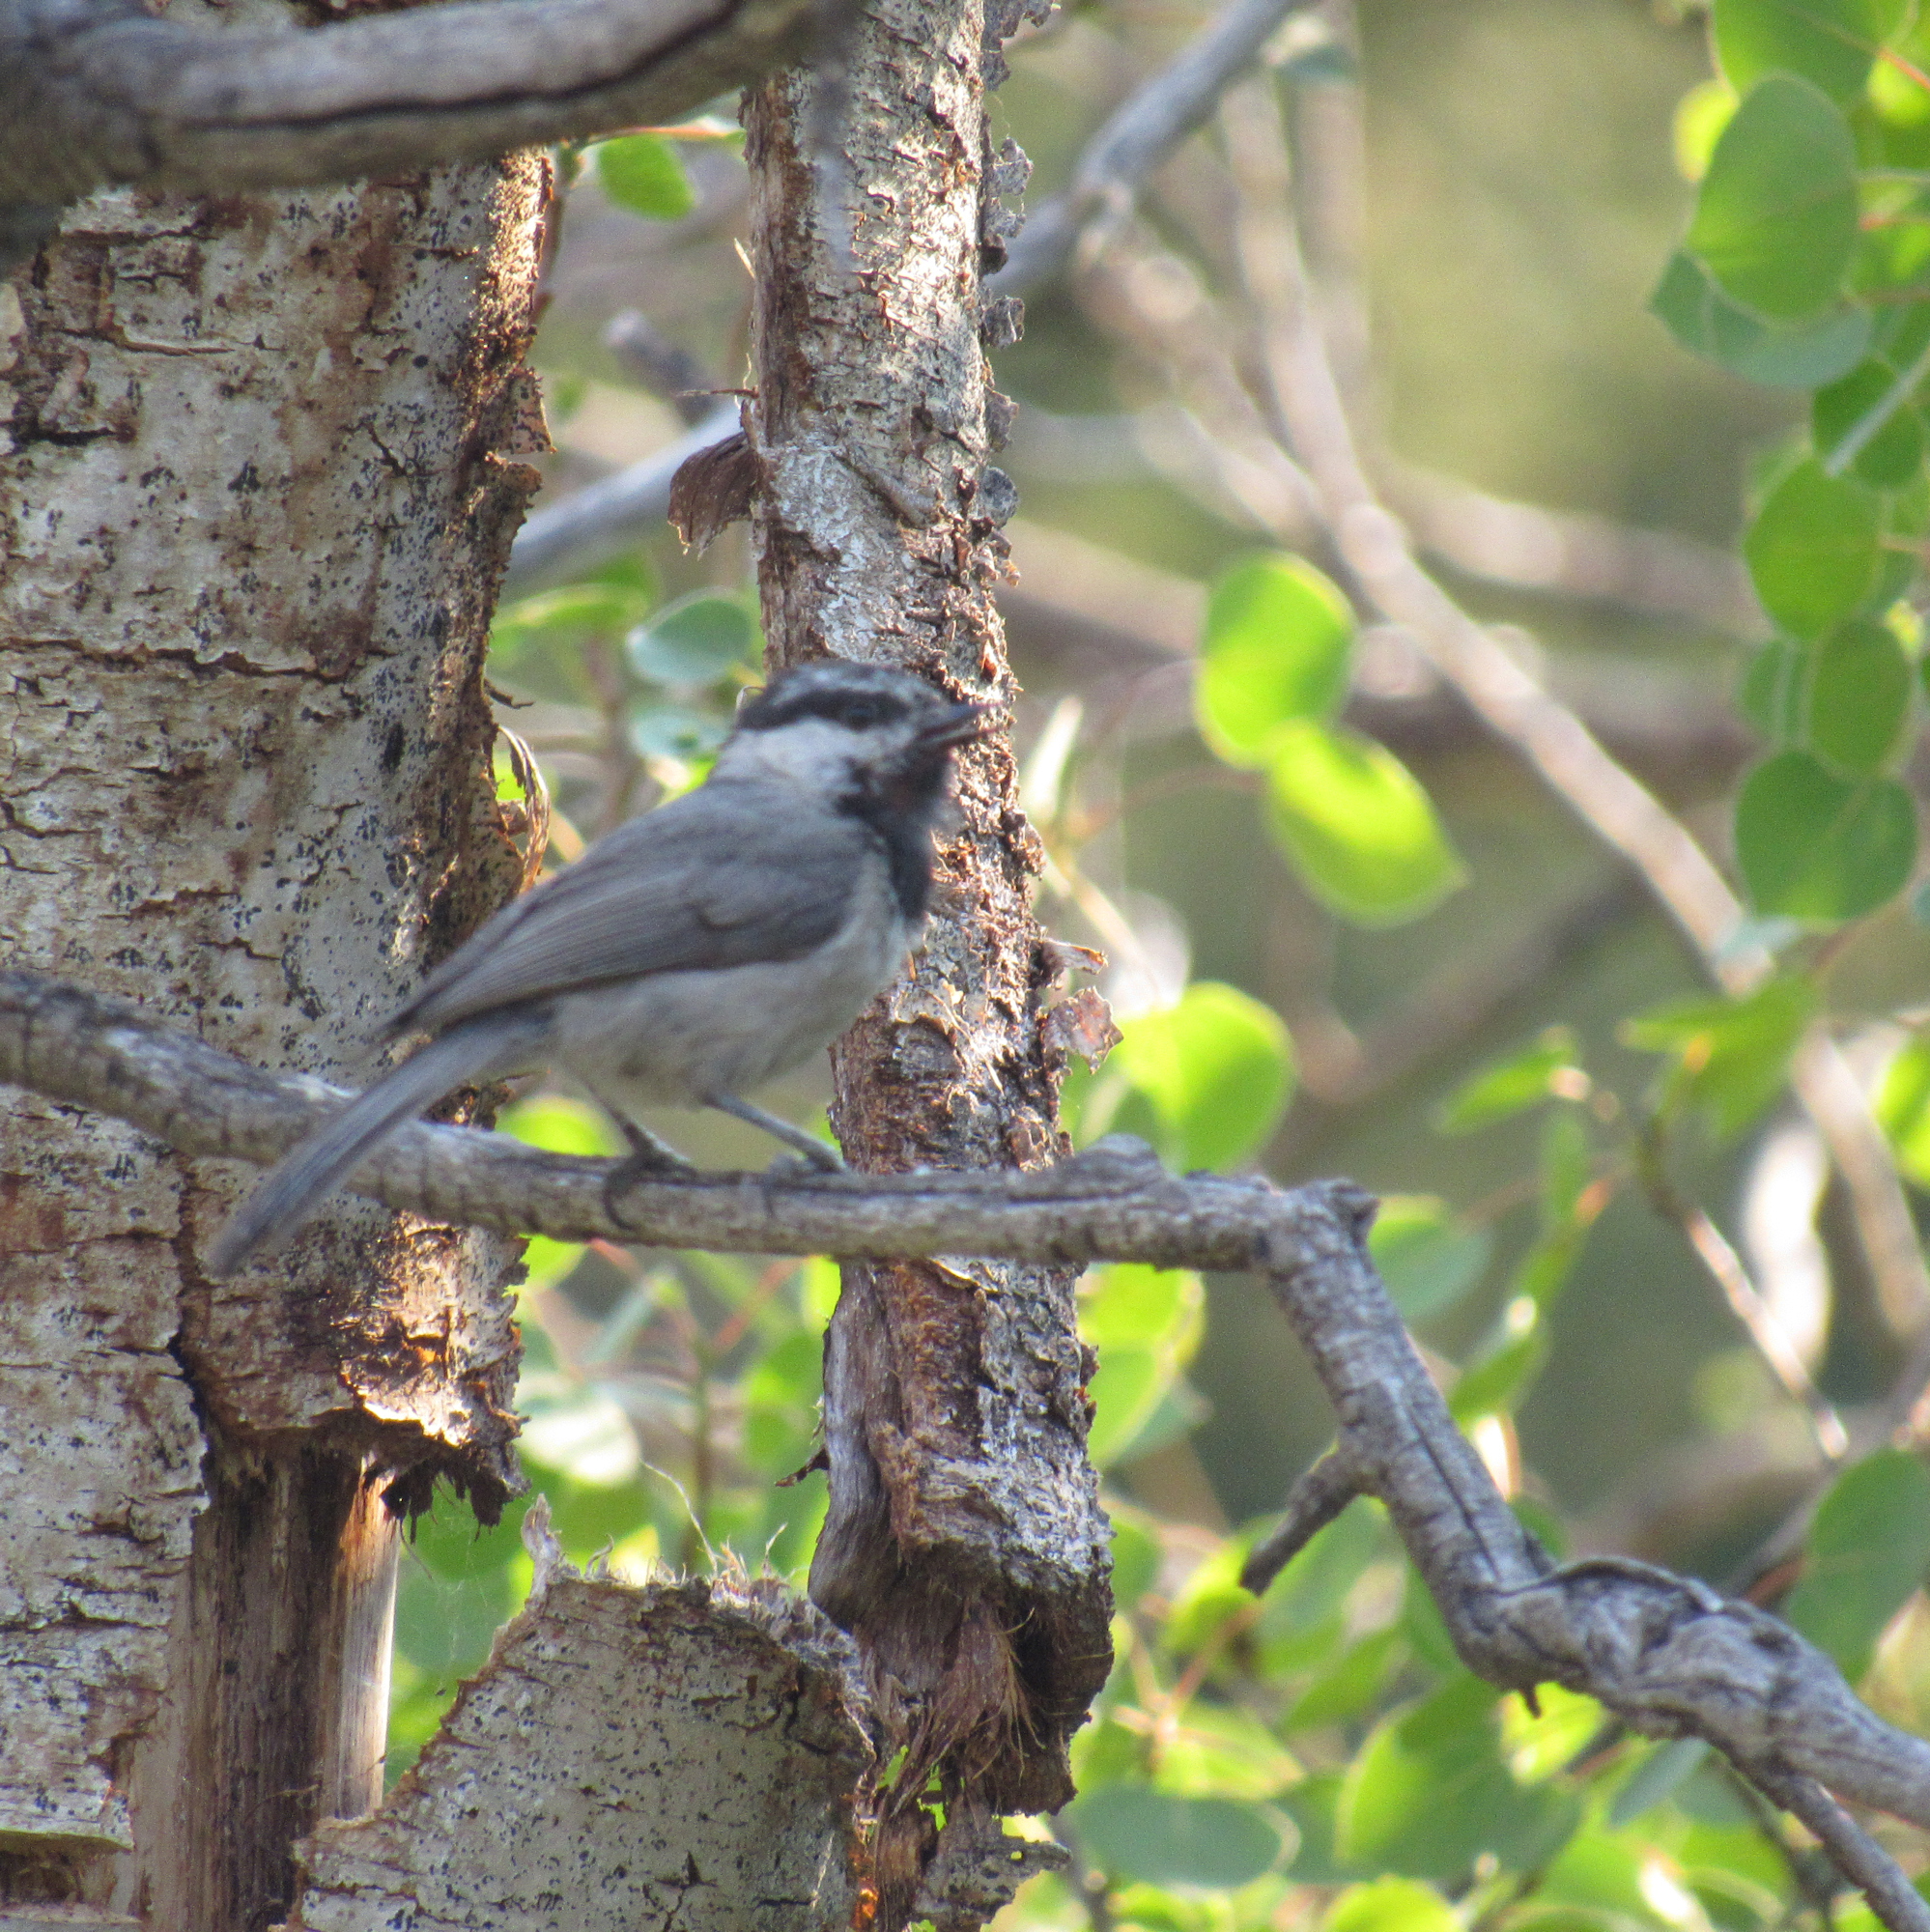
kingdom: Animalia
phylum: Chordata
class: Aves
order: Passeriformes
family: Paridae
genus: Poecile
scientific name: Poecile gambeli
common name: Mountain chickadee
